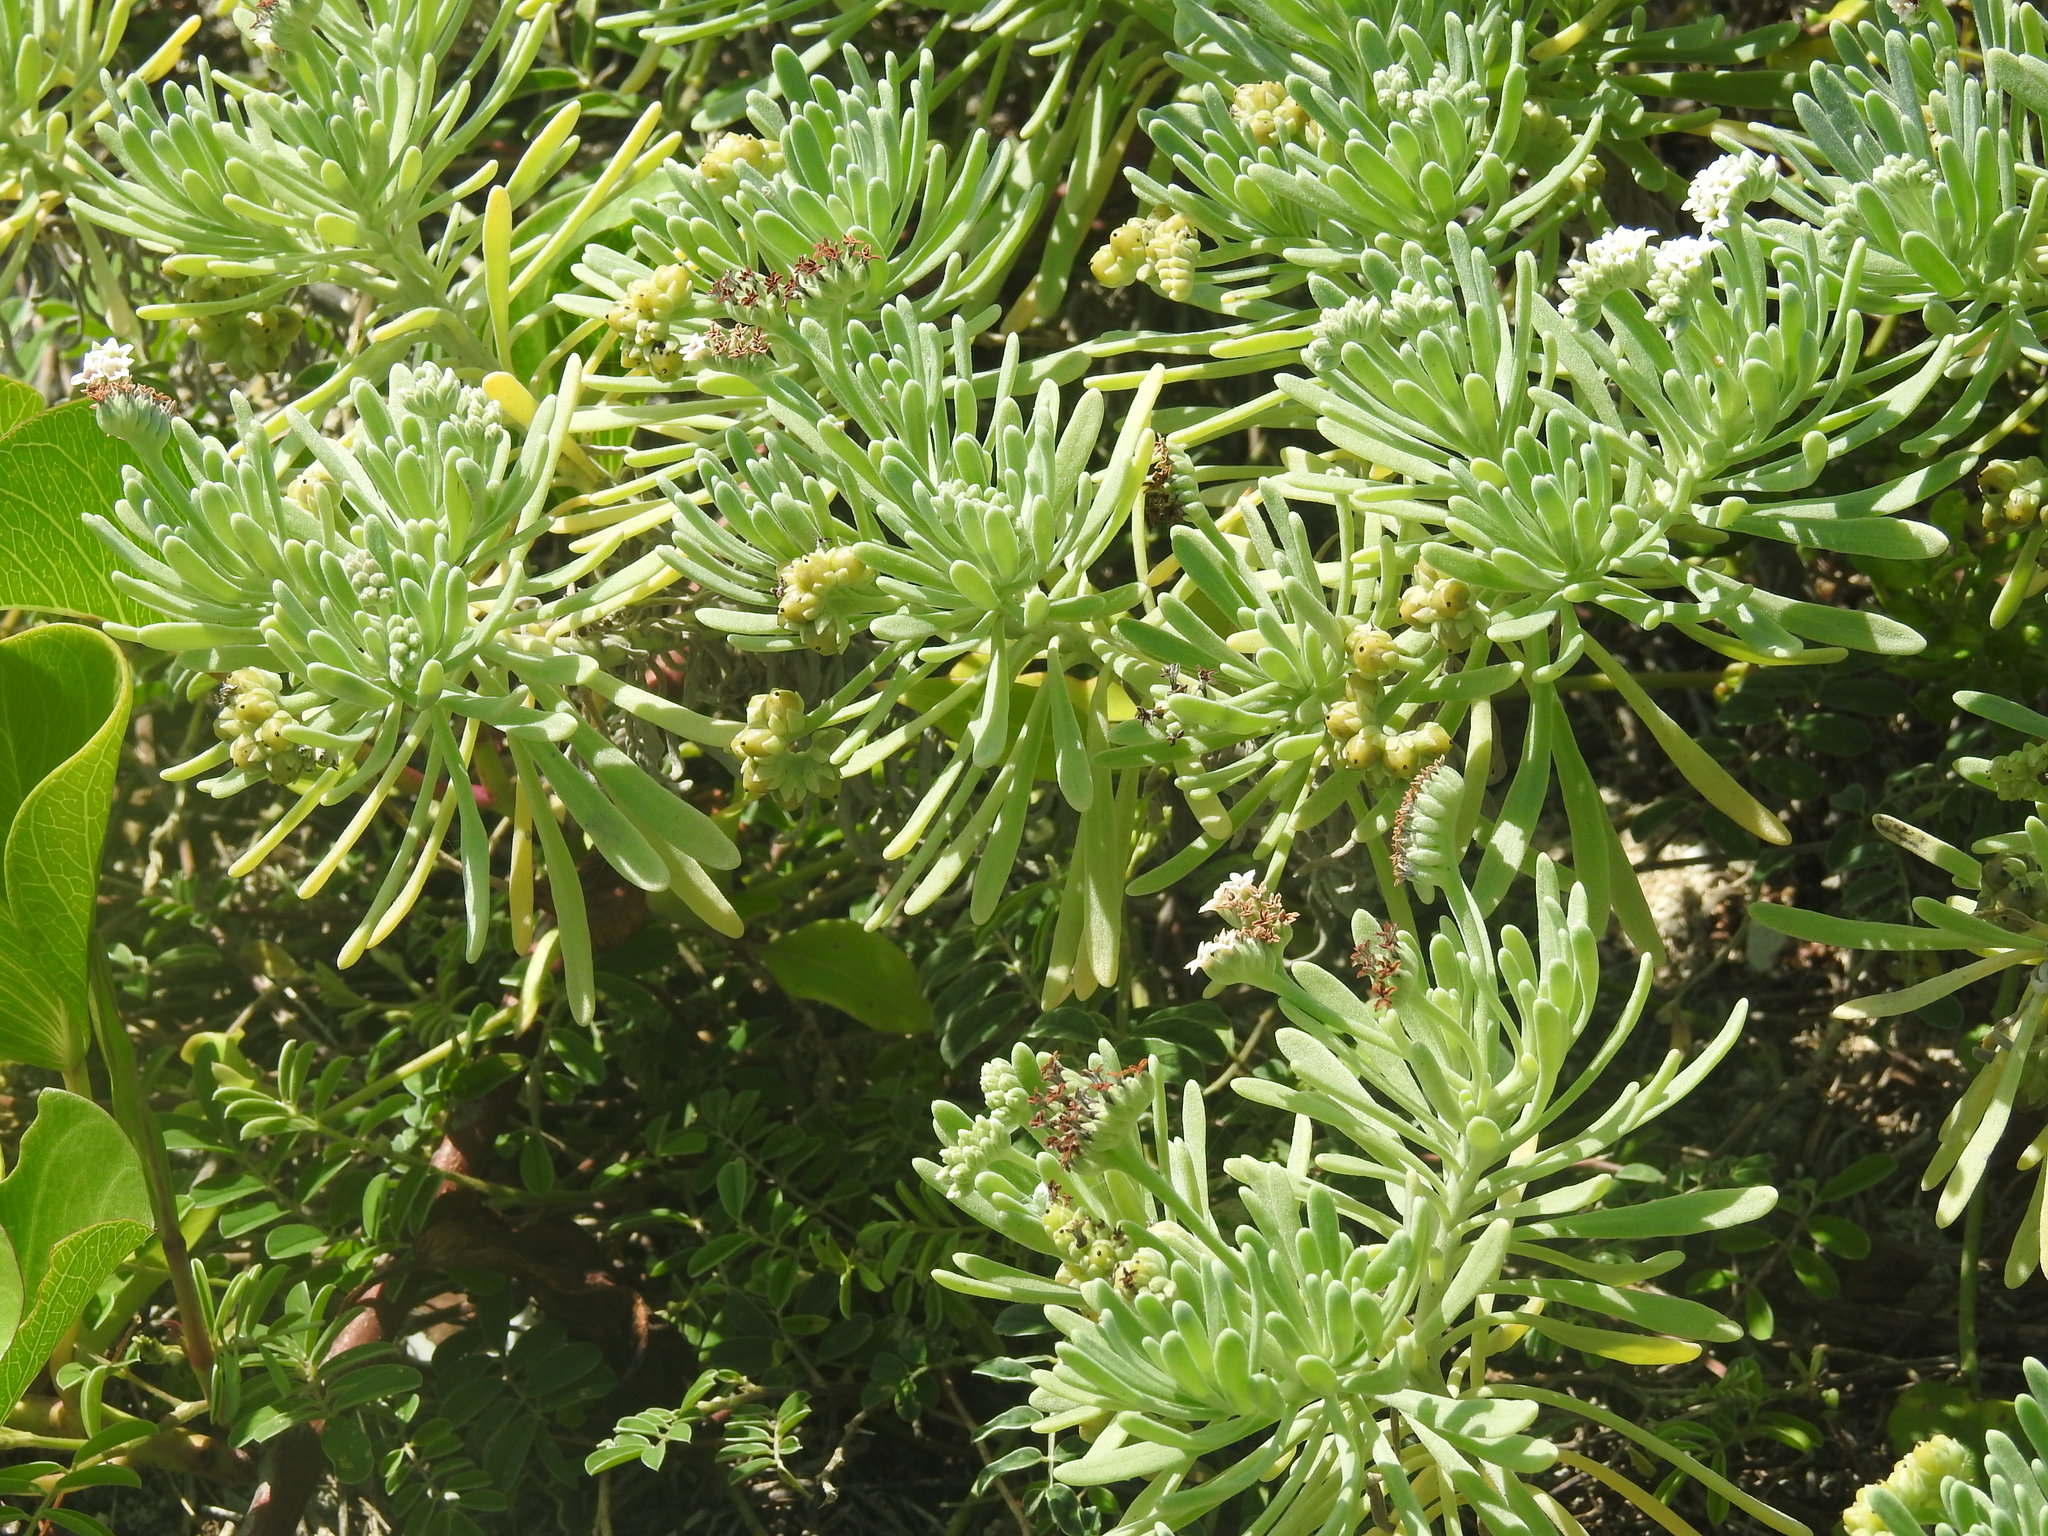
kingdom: Plantae
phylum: Tracheophyta
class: Magnoliopsida
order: Boraginales
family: Heliotropiaceae
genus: Tournefortia
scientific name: Tournefortia gnaphalodes
